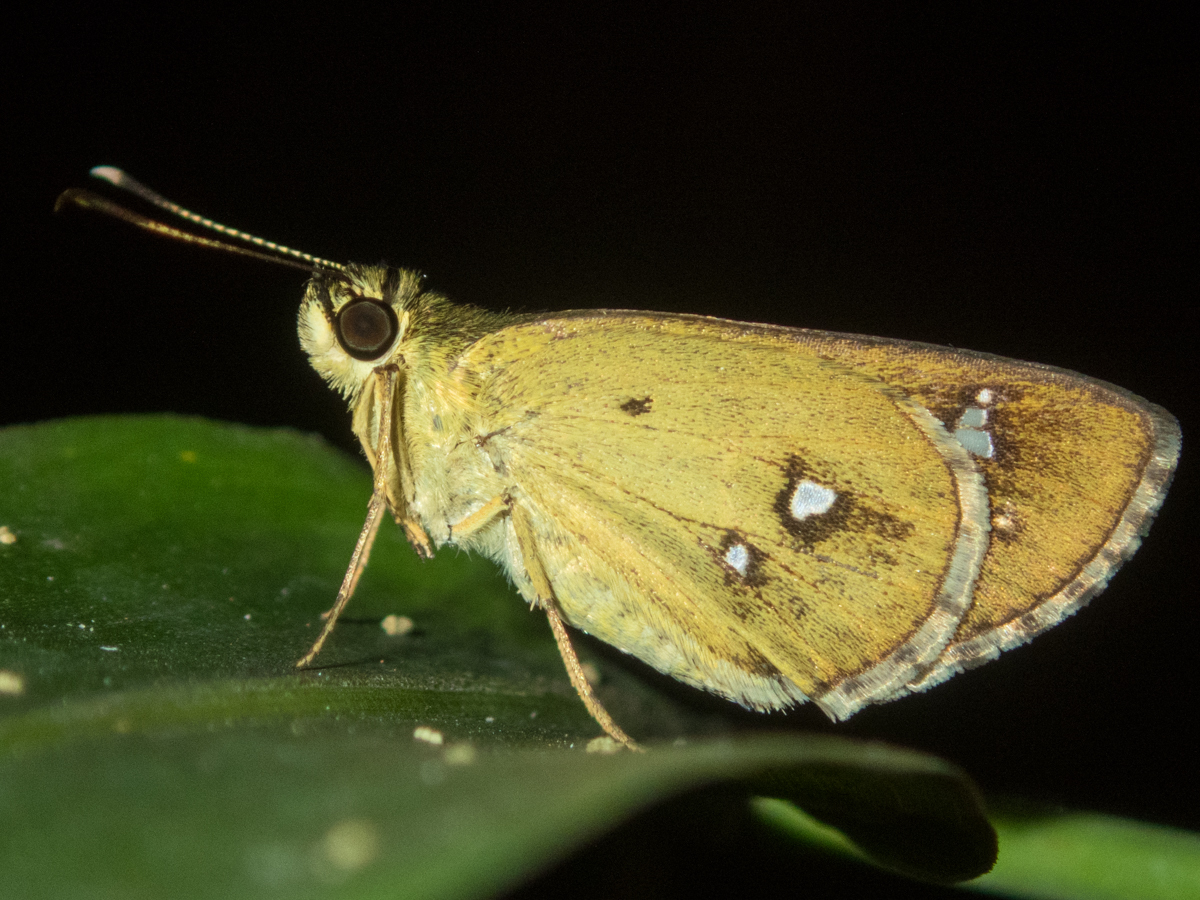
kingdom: Animalia
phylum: Arthropoda
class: Insecta
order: Lepidoptera
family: Hesperiidae
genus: Scobura
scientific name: Scobura isota
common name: Swinhoe's forest bob
